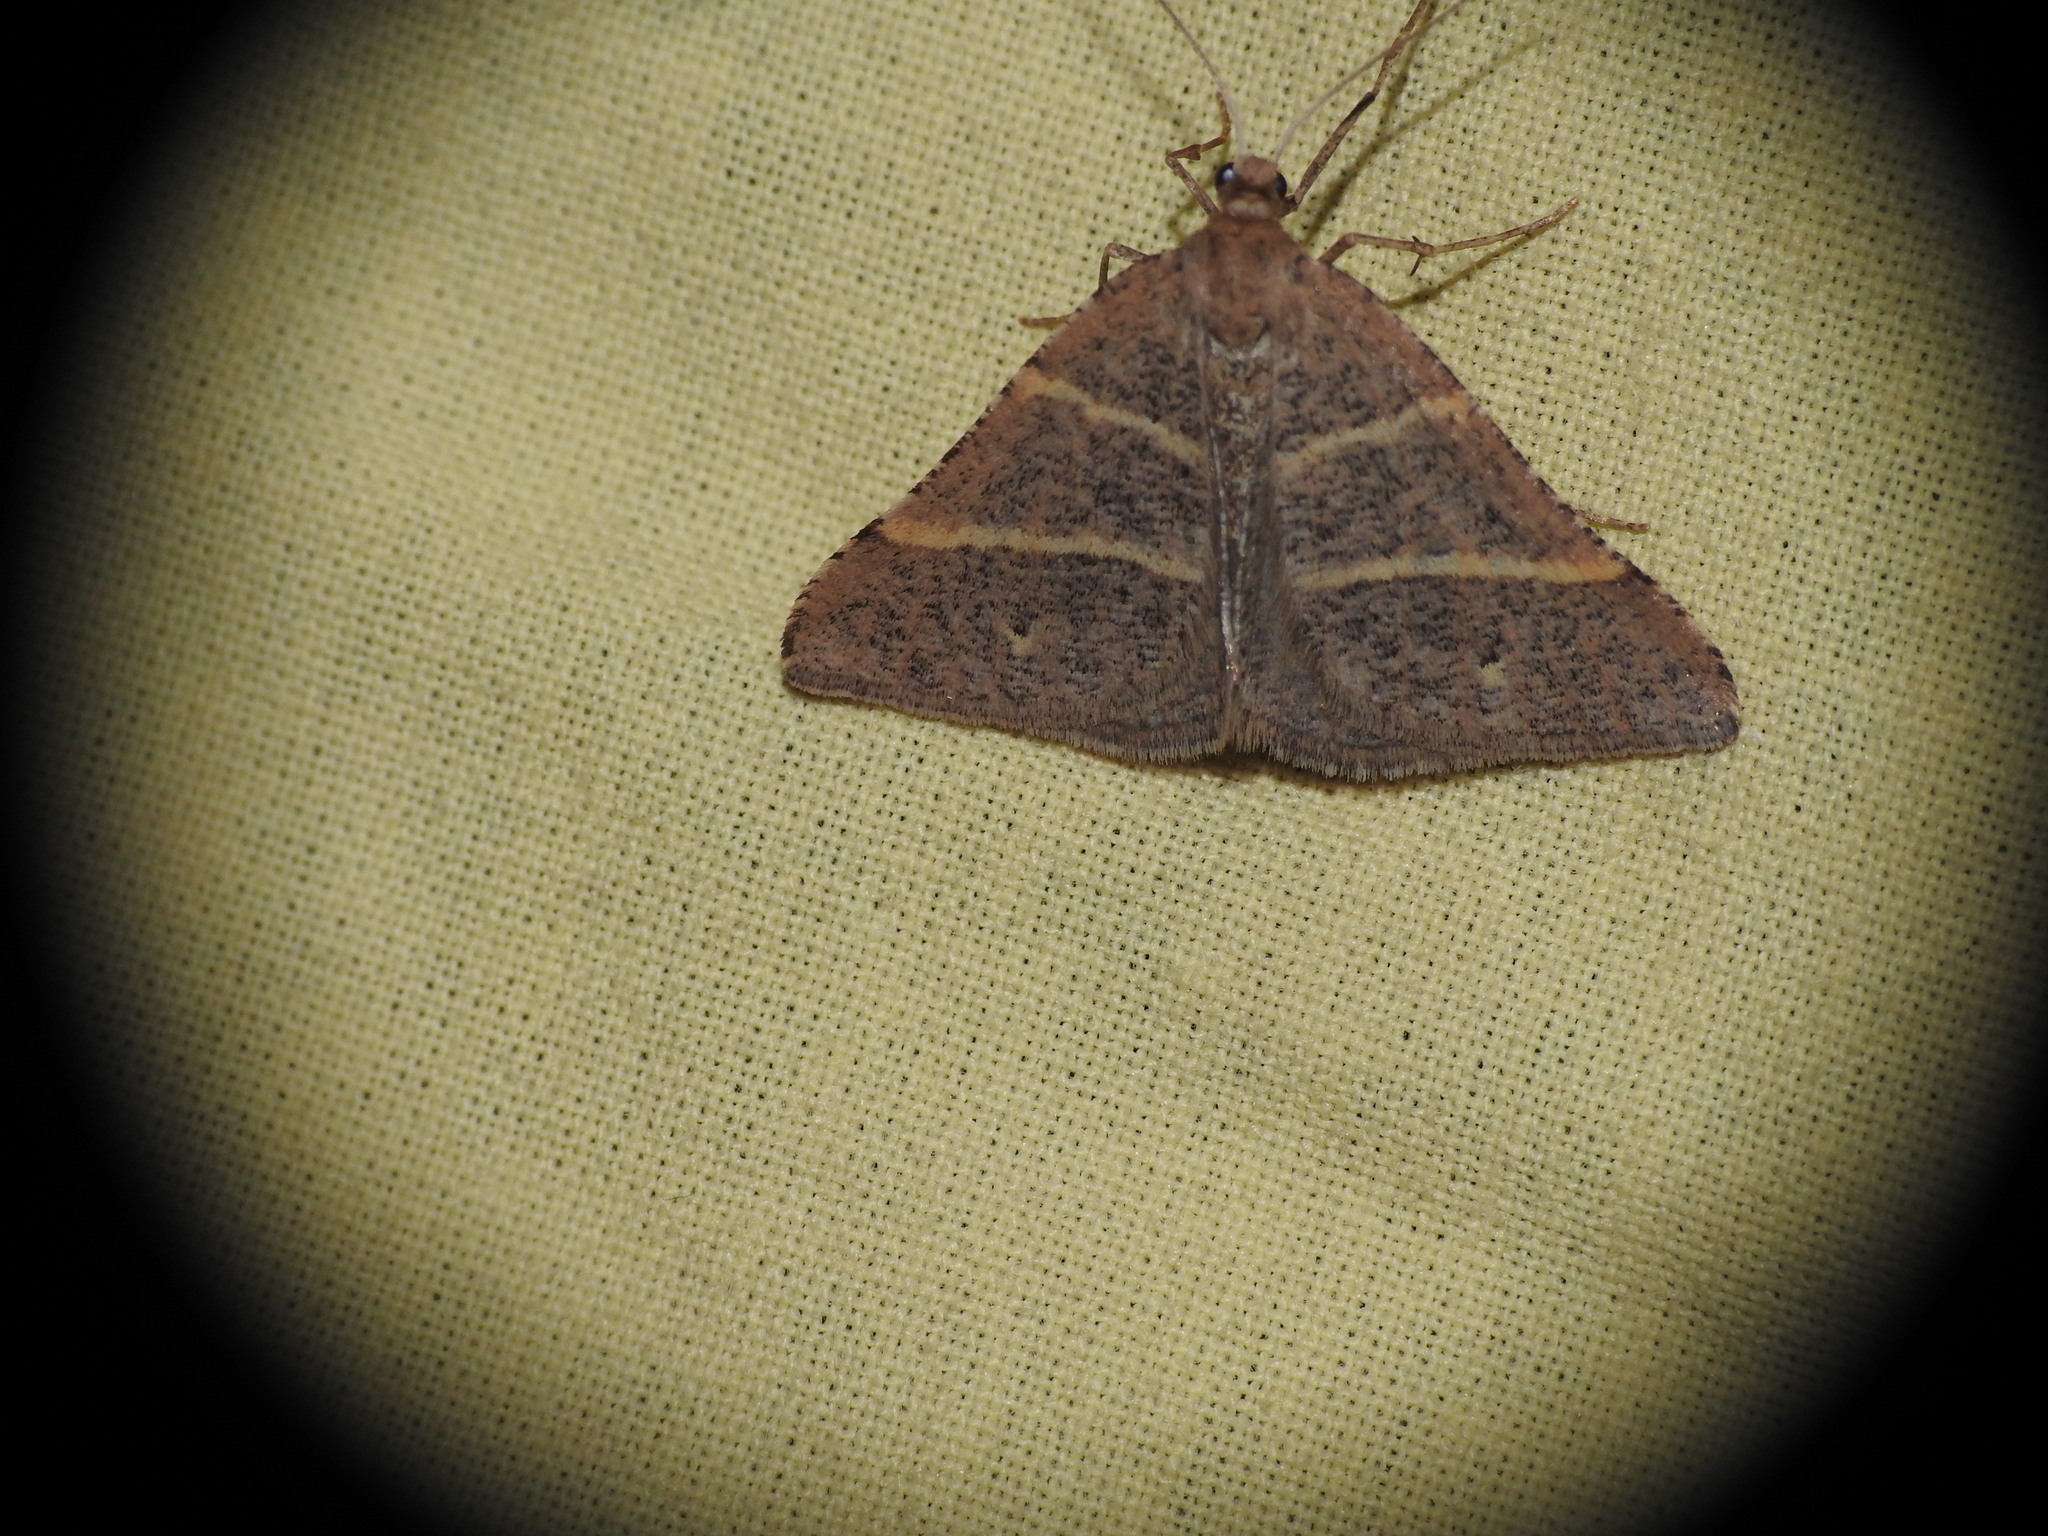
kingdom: Animalia
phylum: Arthropoda
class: Insecta
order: Lepidoptera
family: Pterophoridae
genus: Pterophorus
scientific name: Pterophorus Petrophora narbonea
